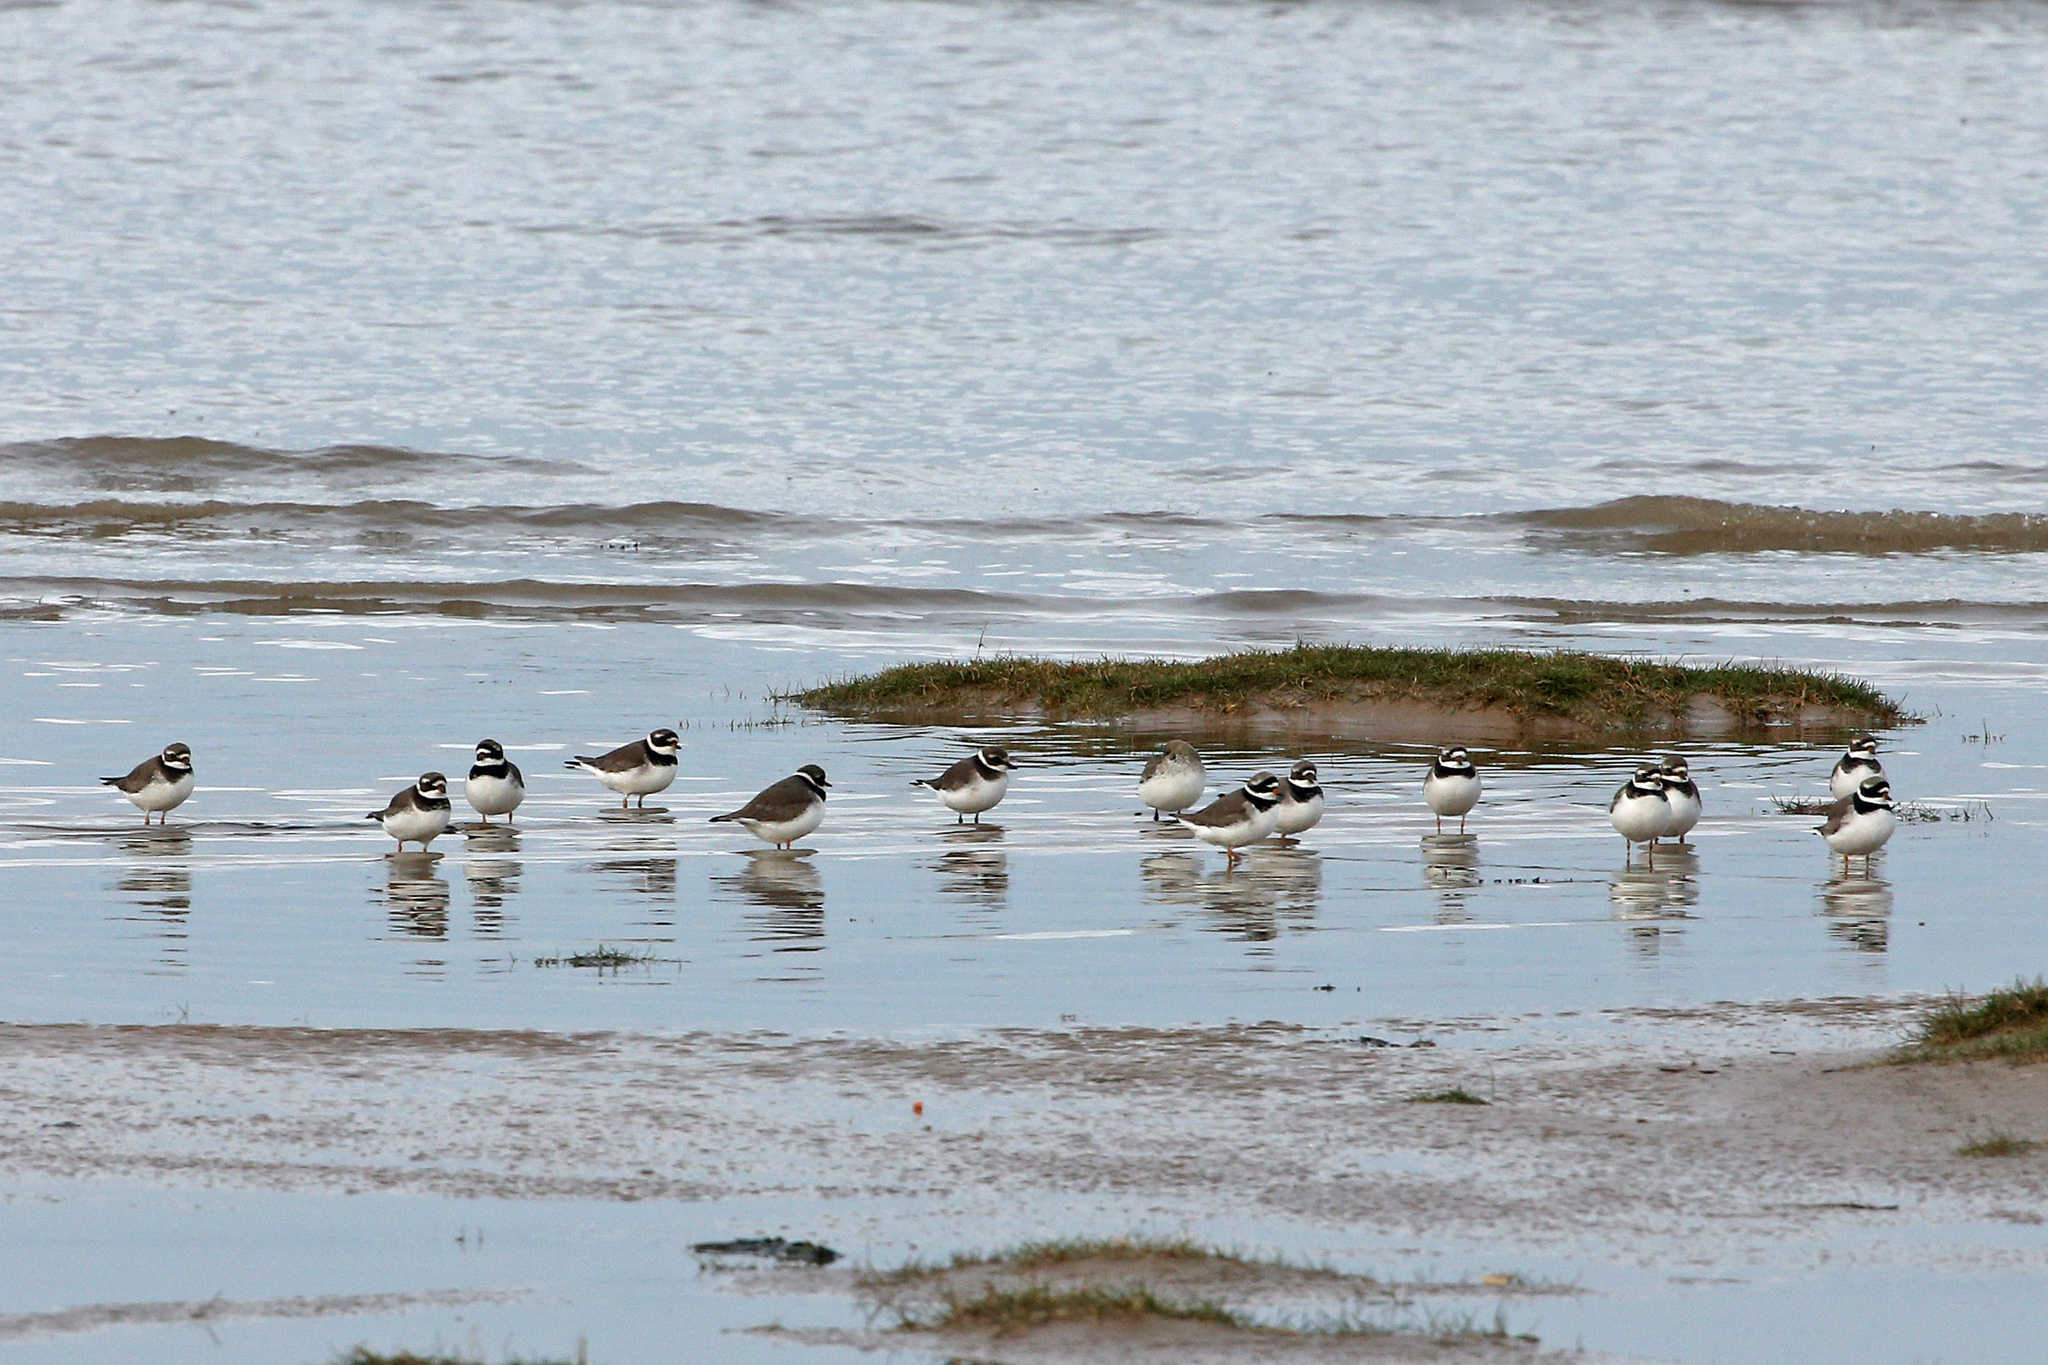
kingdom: Animalia
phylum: Chordata
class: Aves
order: Charadriiformes
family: Charadriidae
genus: Charadrius
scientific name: Charadrius hiaticula
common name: Common ringed plover
